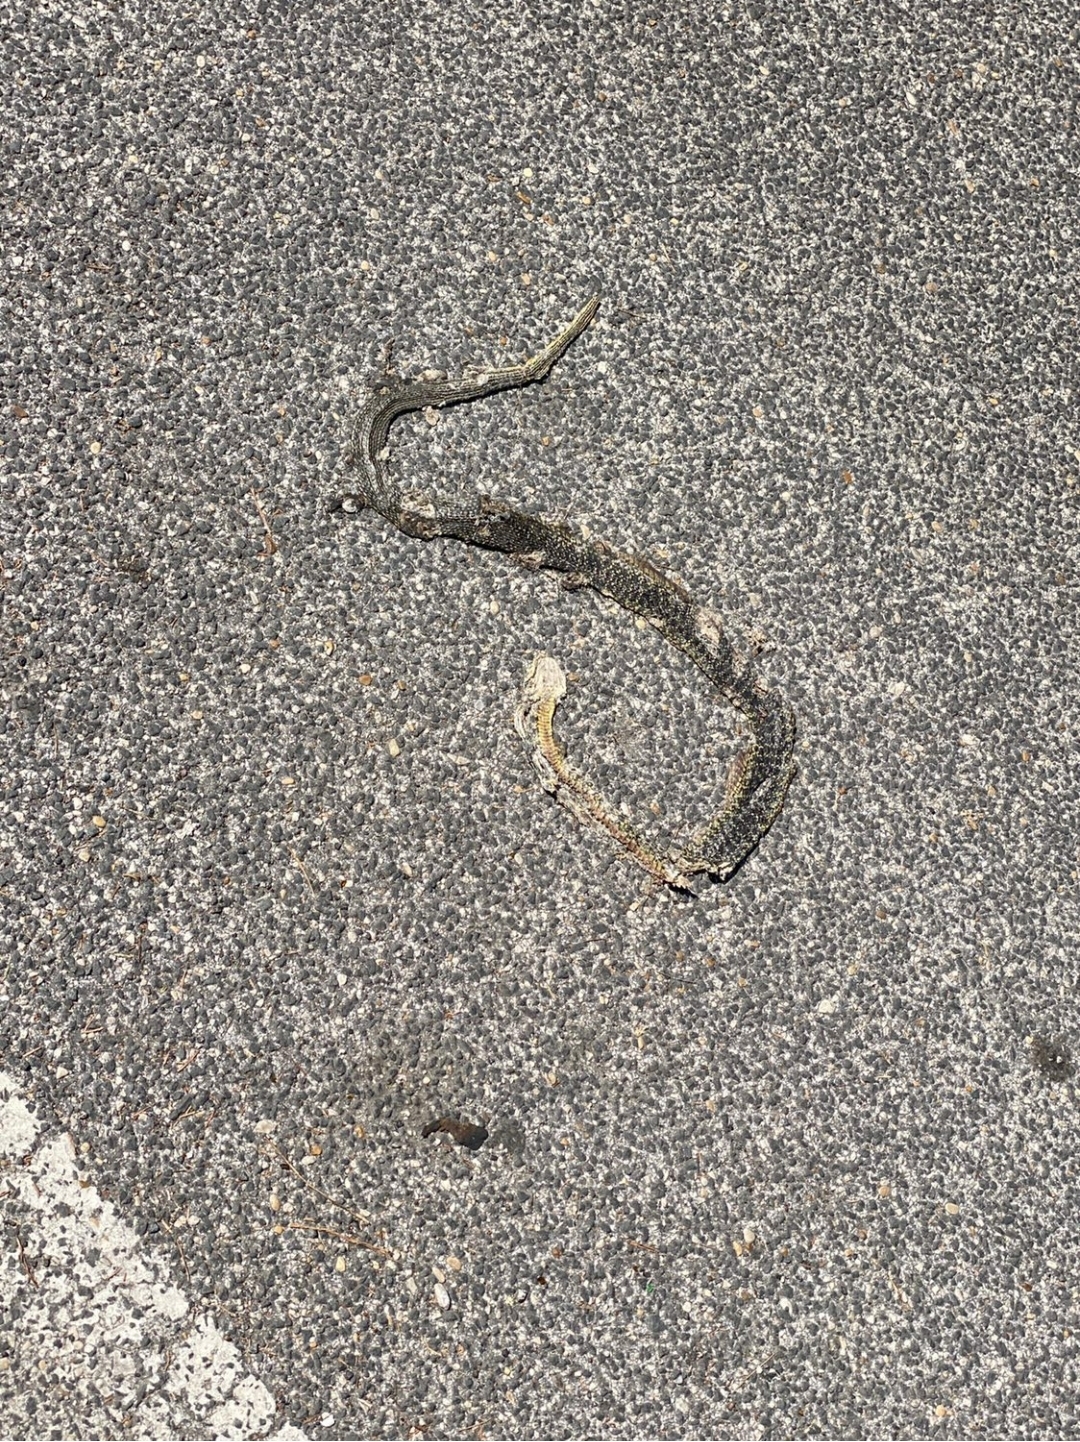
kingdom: Animalia
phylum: Chordata
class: Squamata
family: Colubridae
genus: Hierophis
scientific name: Hierophis viridiflavus
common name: Green whip snake
